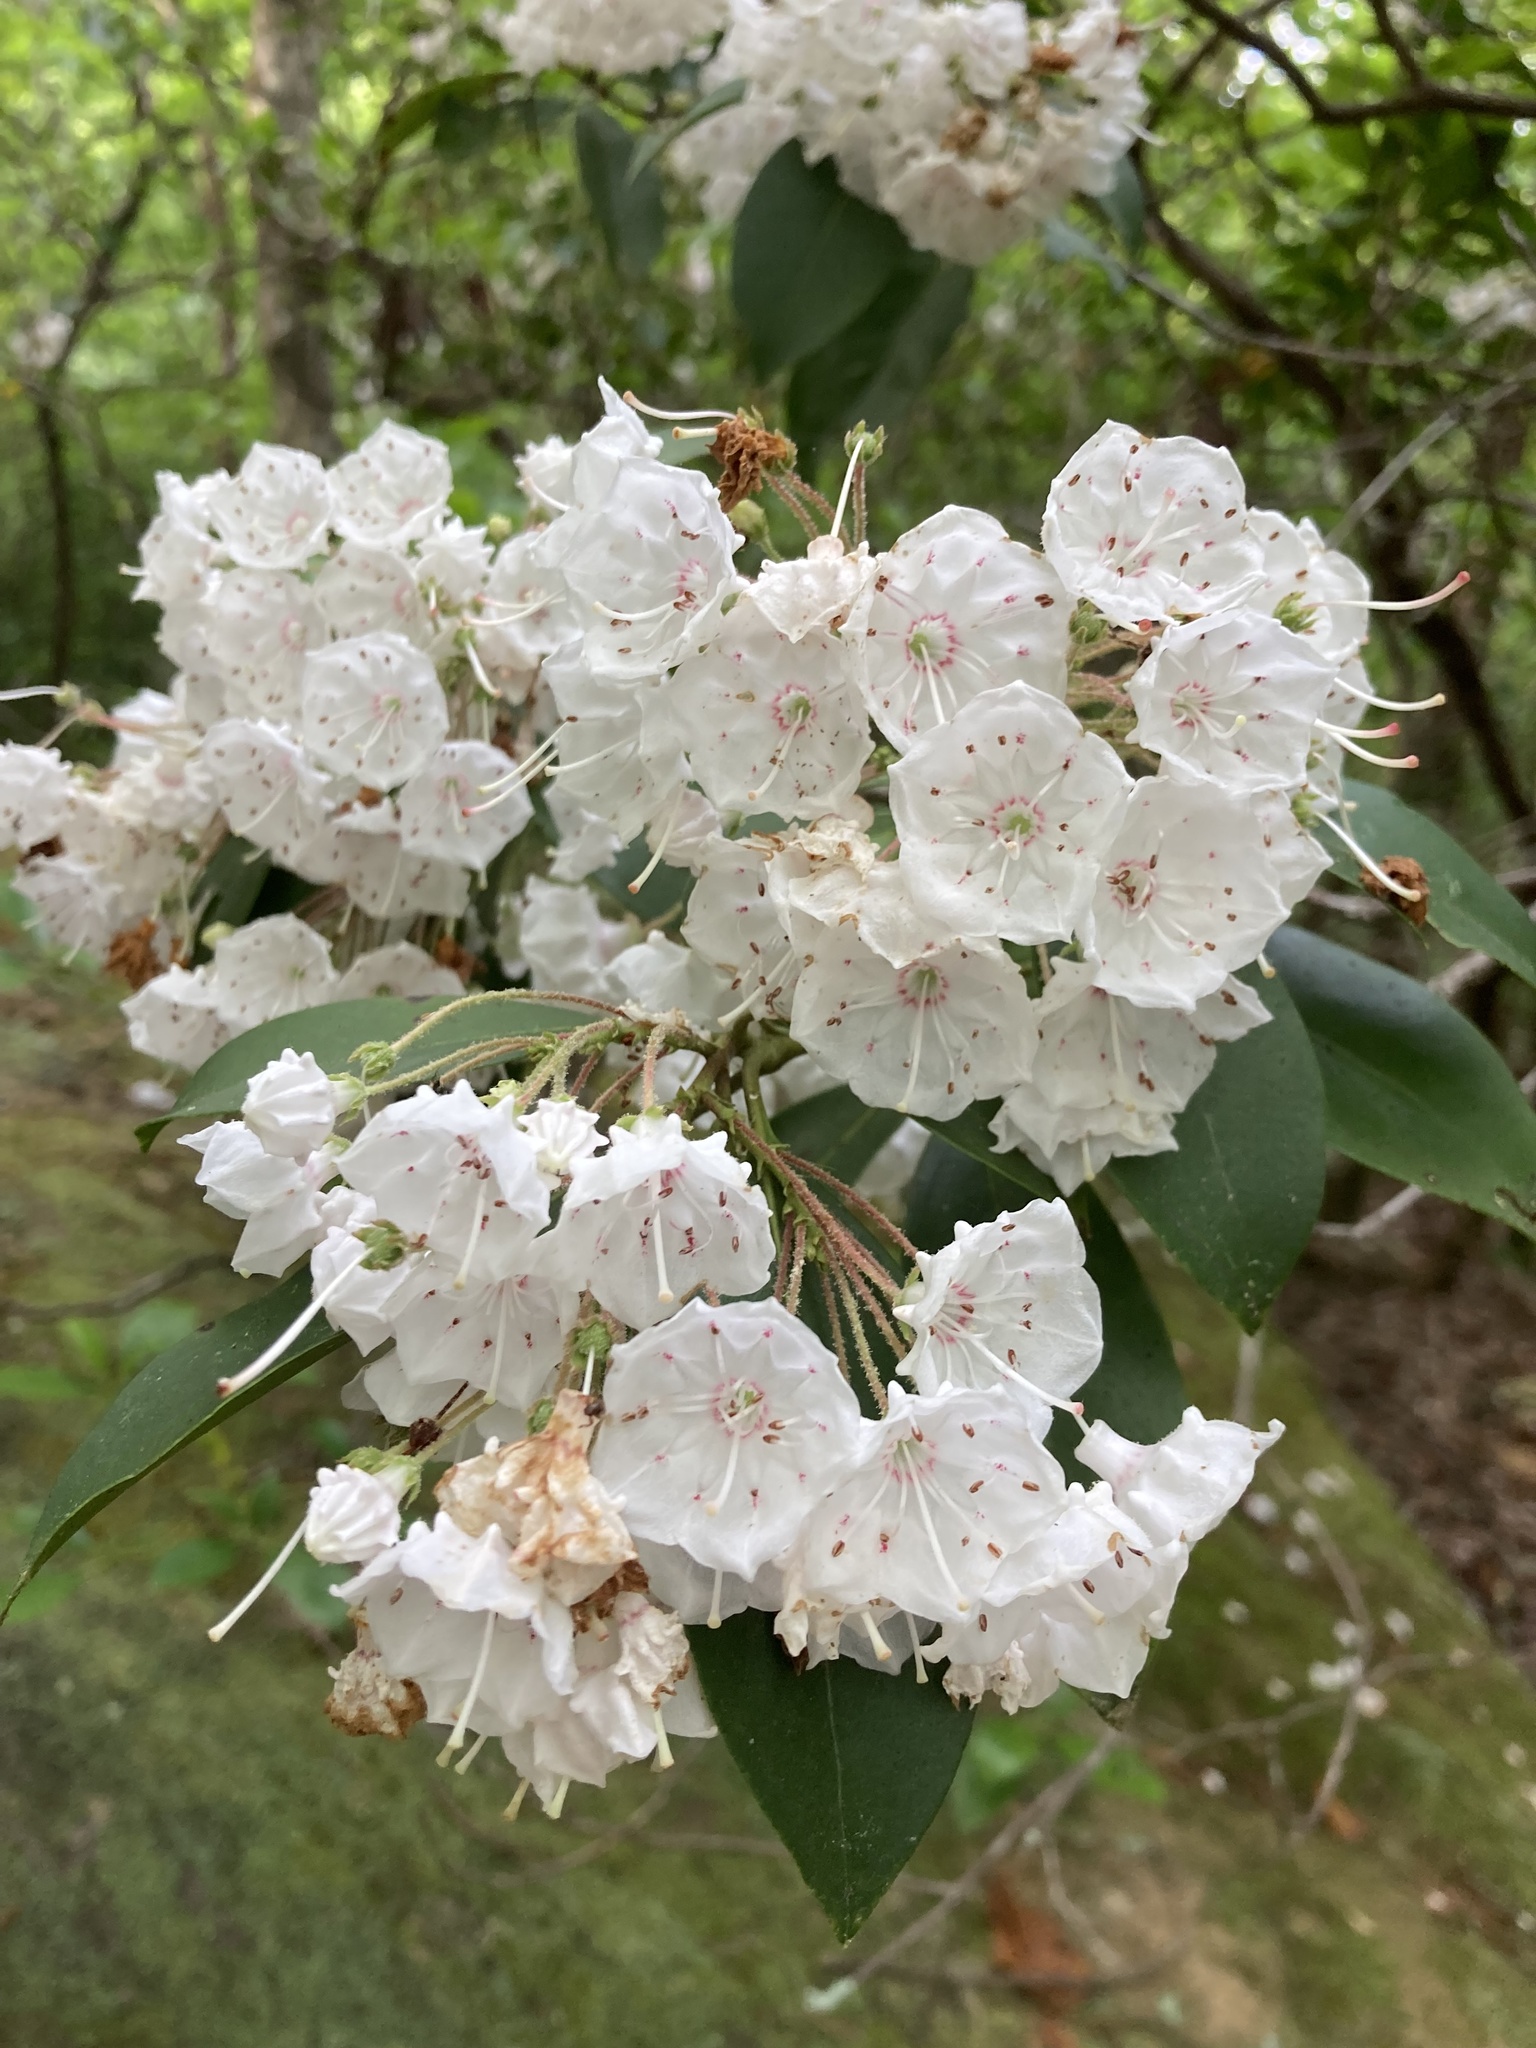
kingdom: Plantae
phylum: Tracheophyta
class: Magnoliopsida
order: Ericales
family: Ericaceae
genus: Kalmia
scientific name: Kalmia latifolia
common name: Mountain-laurel
